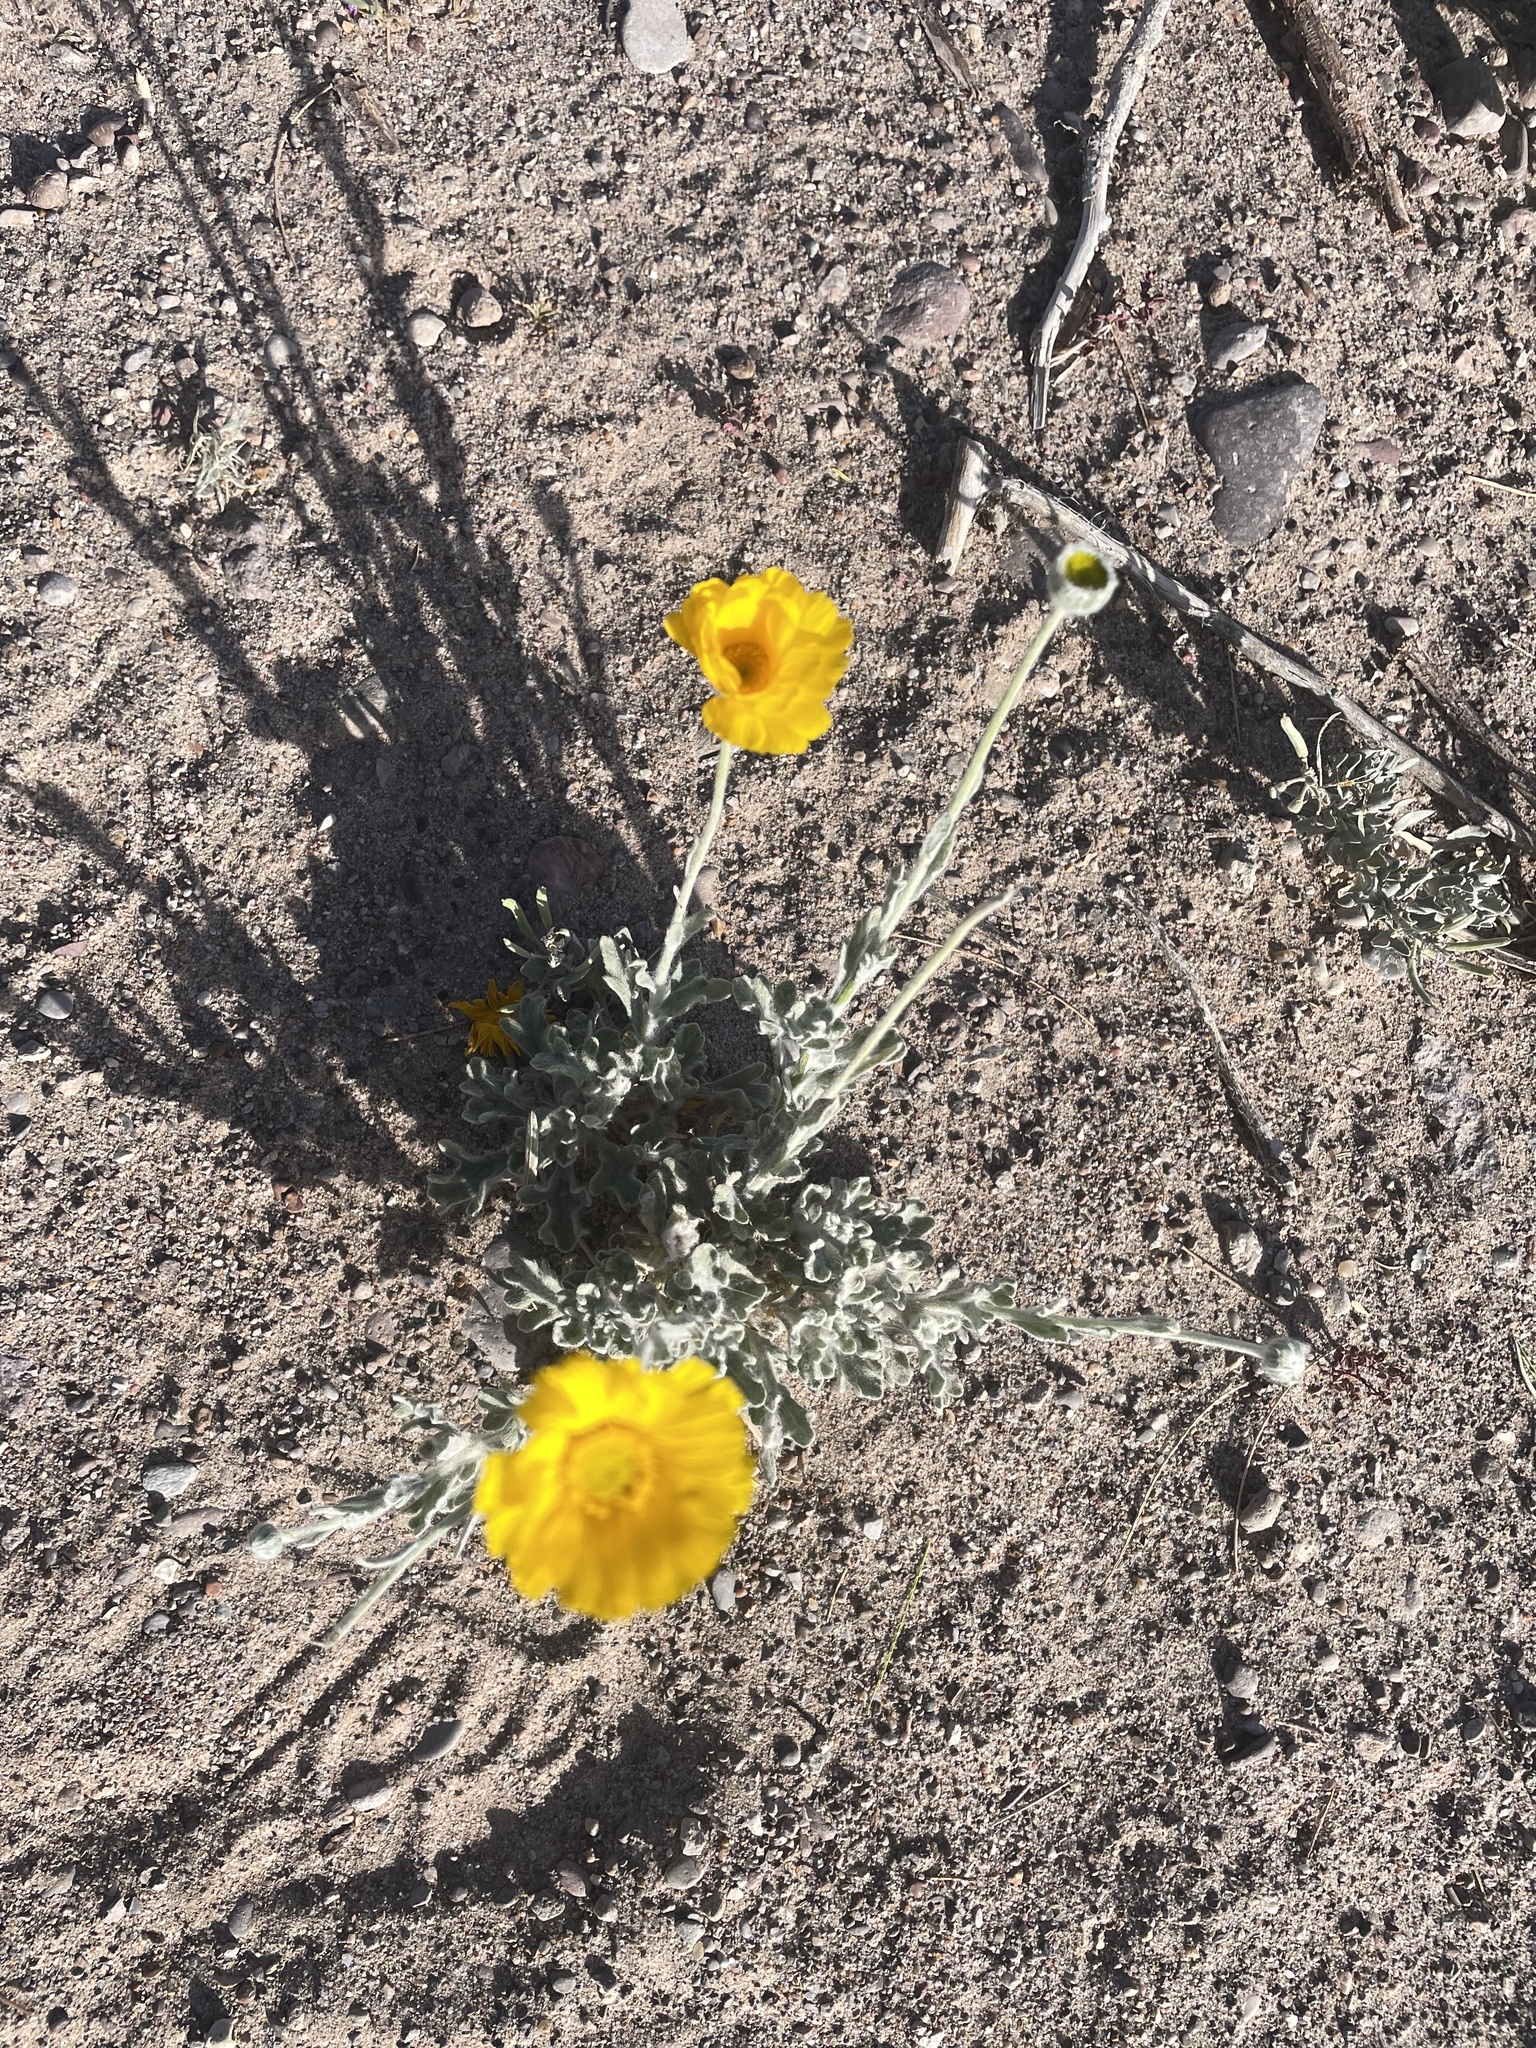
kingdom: Plantae
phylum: Tracheophyta
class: Magnoliopsida
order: Asterales
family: Asteraceae
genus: Baileya
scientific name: Baileya multiradiata
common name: Desert-marigold
